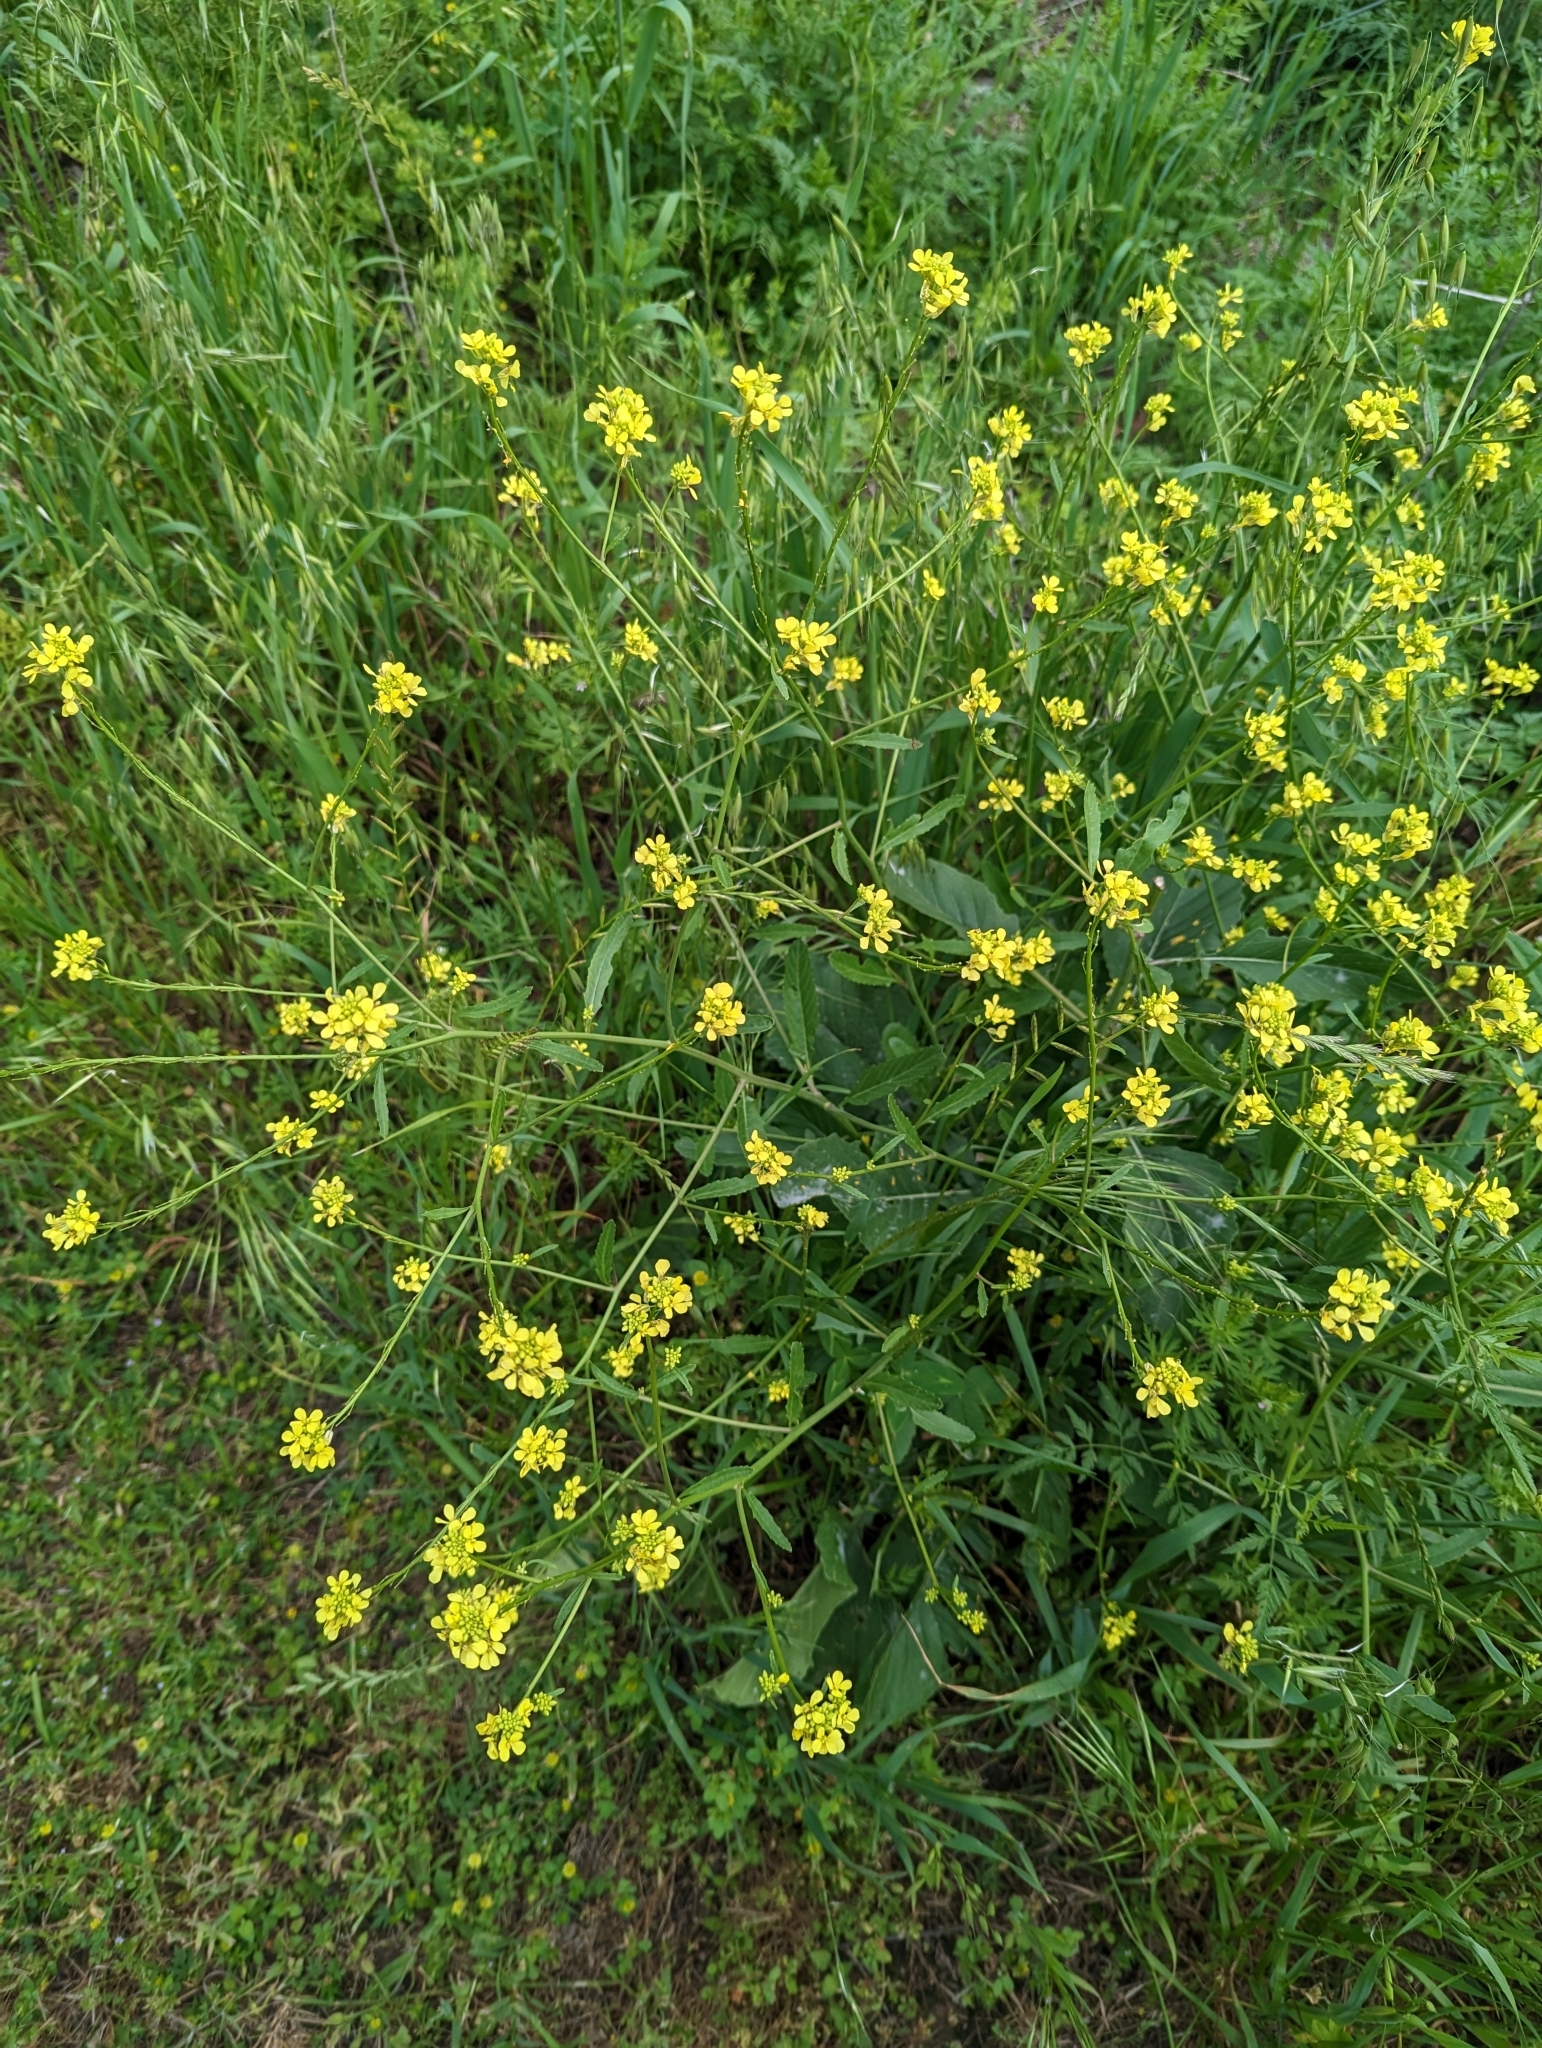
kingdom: Plantae
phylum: Tracheophyta
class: Magnoliopsida
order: Brassicales
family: Brassicaceae
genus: Rapistrum
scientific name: Rapistrum rugosum
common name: Annual bastardcabbage
